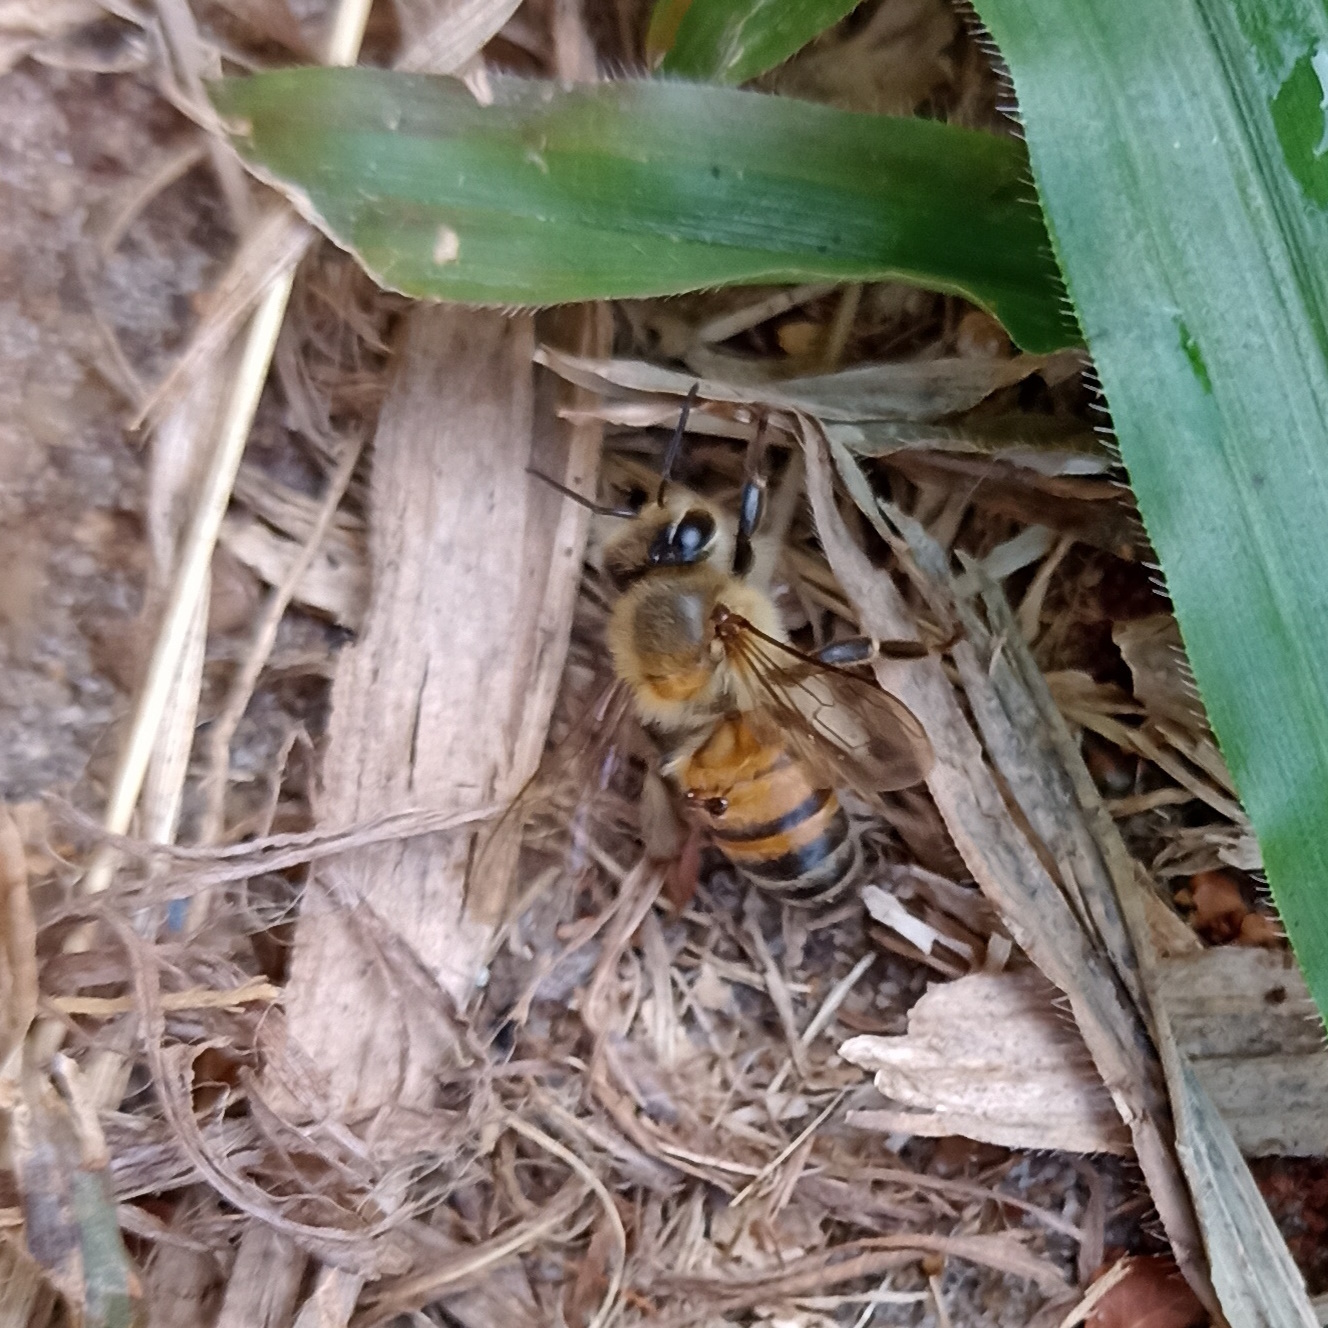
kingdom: Animalia
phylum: Arthropoda
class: Insecta
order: Hymenoptera
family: Apidae
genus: Apis
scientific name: Apis mellifera
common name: Honey bee
